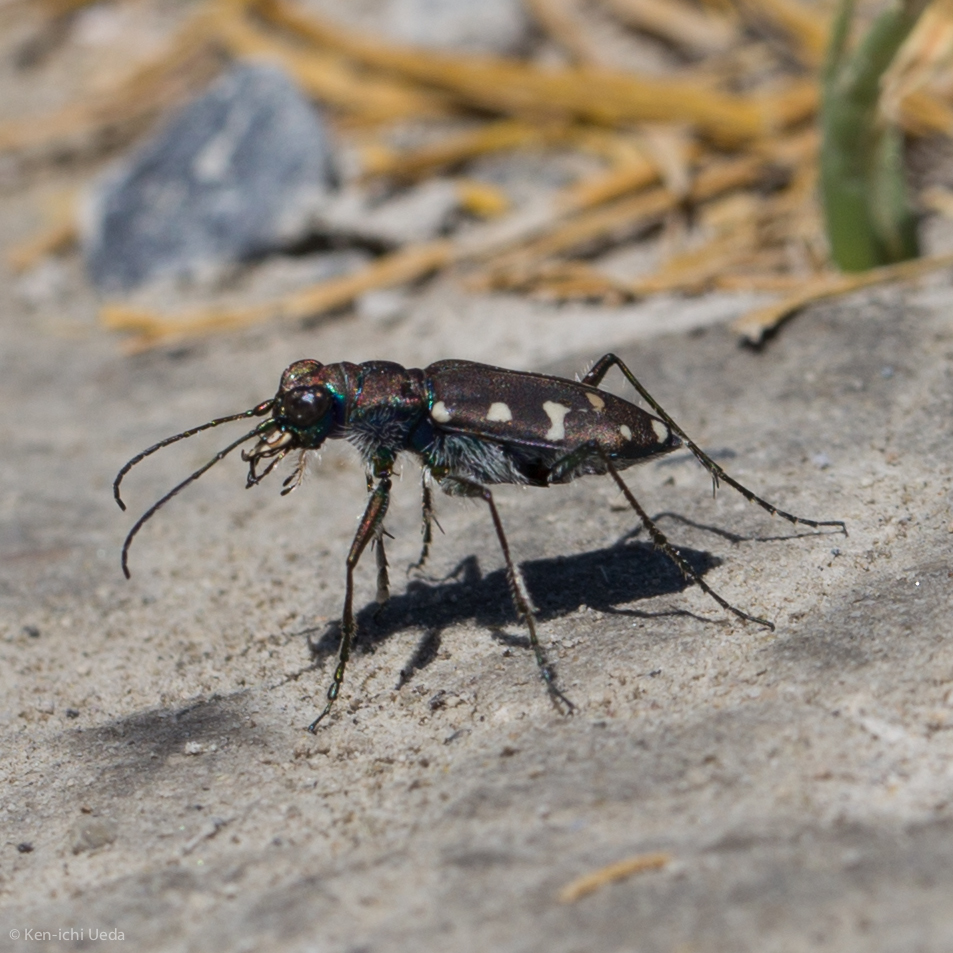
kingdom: Animalia
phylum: Arthropoda
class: Insecta
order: Coleoptera
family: Carabidae
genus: Cicindela
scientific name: Cicindela oregona
